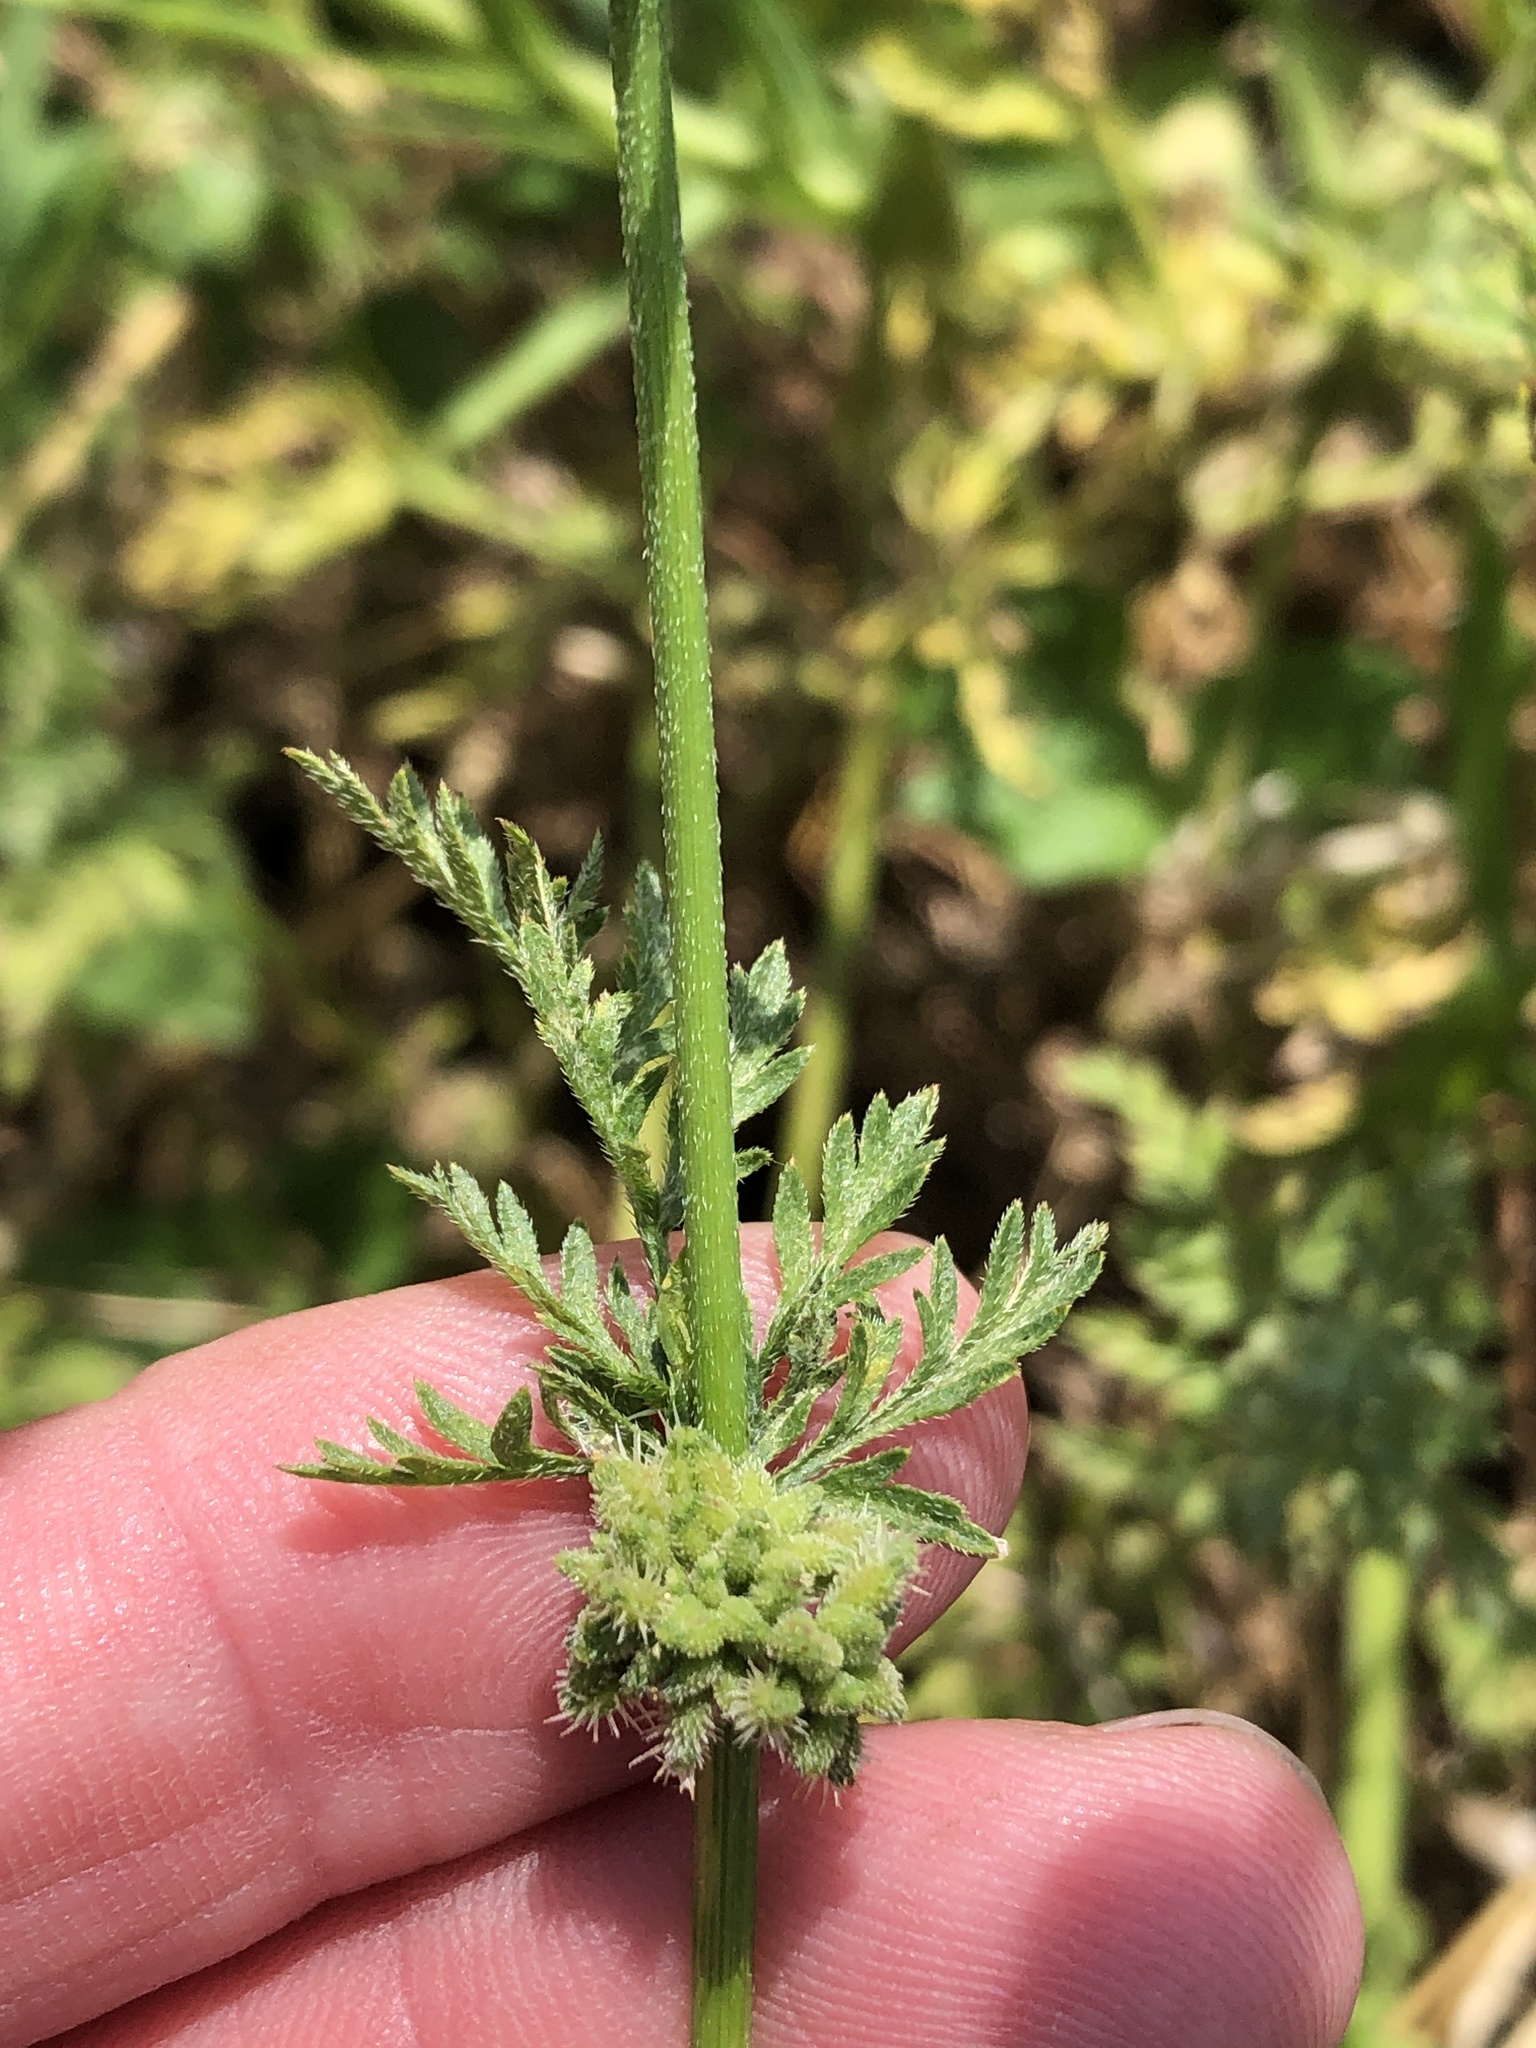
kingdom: Plantae
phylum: Tracheophyta
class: Magnoliopsida
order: Apiales
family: Apiaceae
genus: Torilis
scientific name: Torilis nodosa
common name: Knotted hedge-parsley
